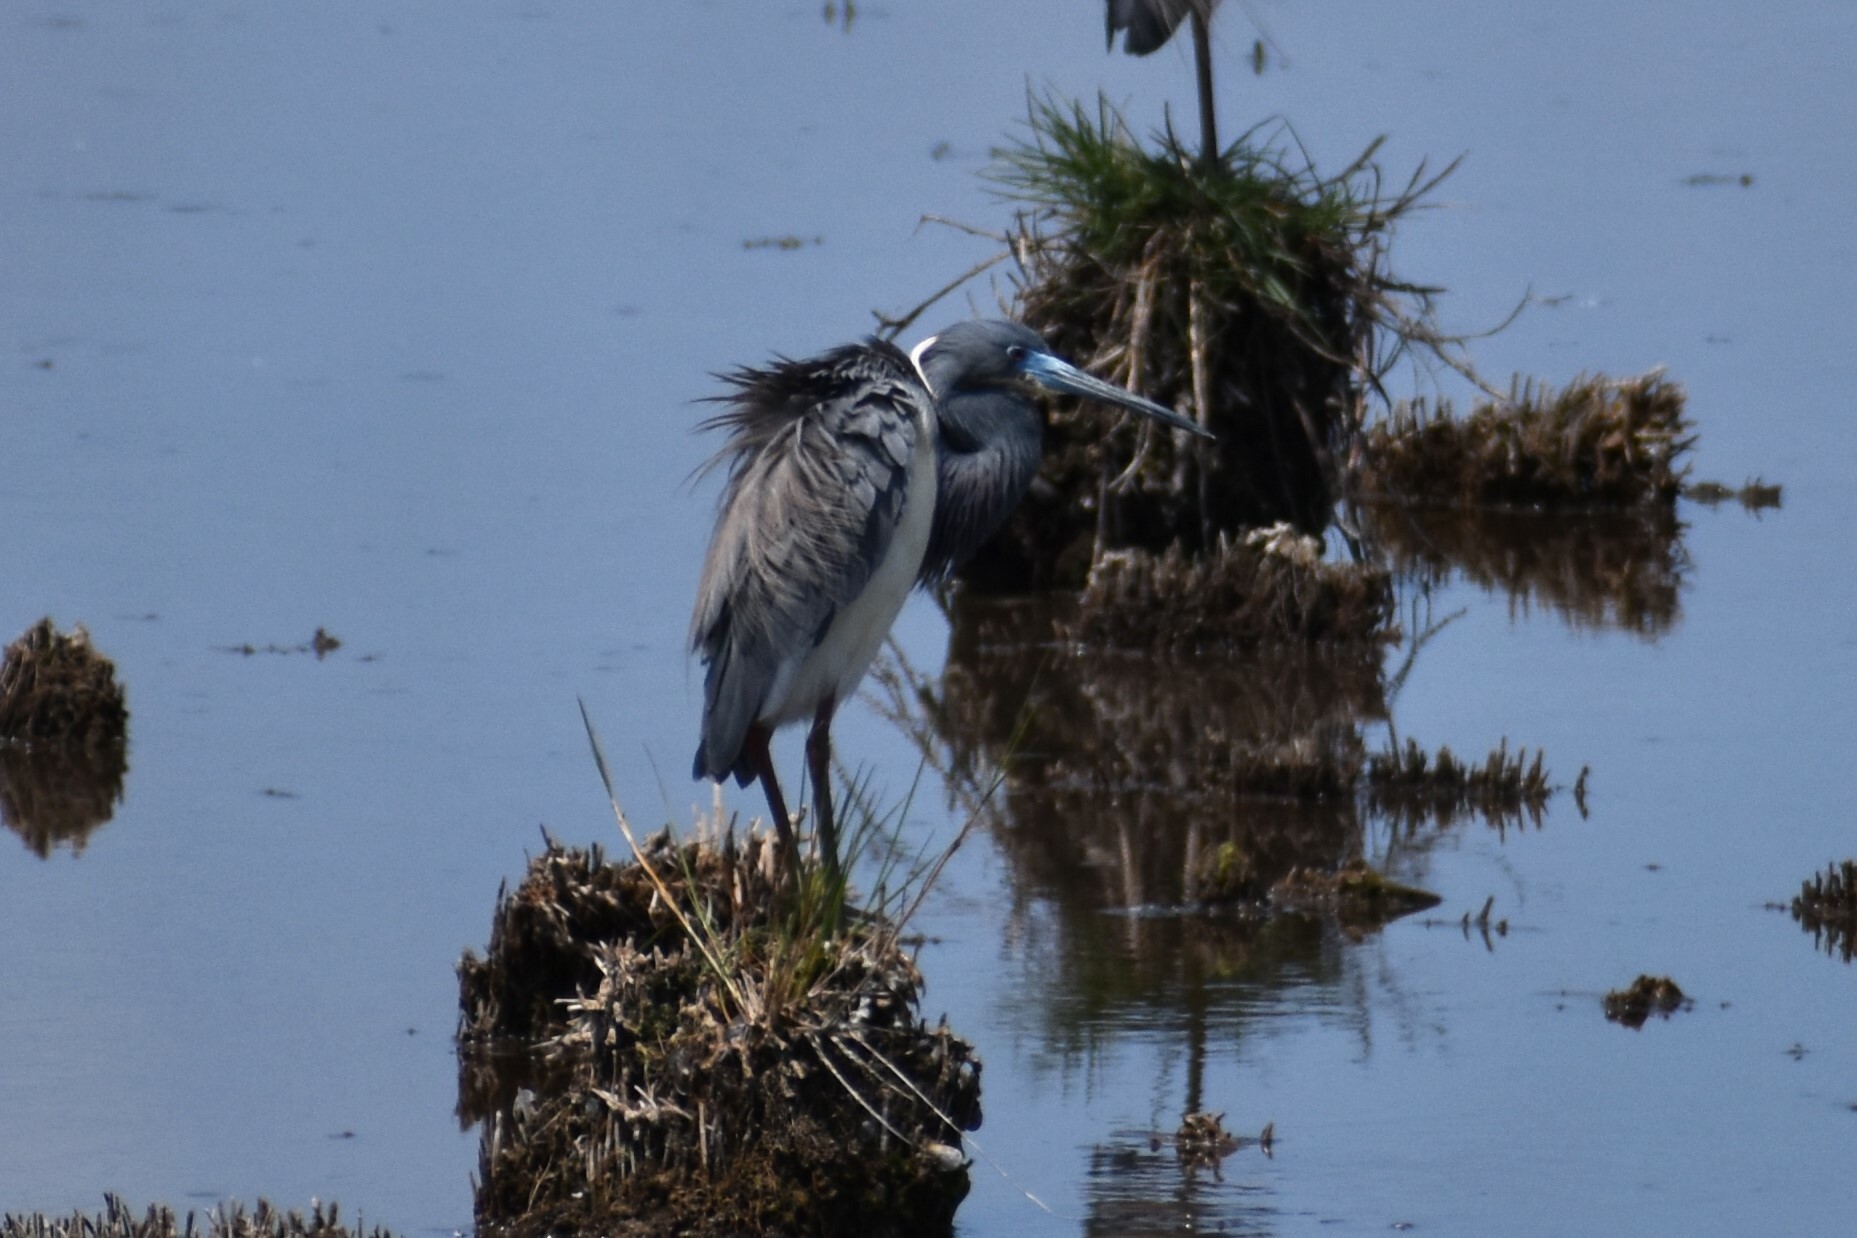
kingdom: Animalia
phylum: Chordata
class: Aves
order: Pelecaniformes
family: Ardeidae
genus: Egretta
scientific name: Egretta tricolor
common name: Tricolored heron
